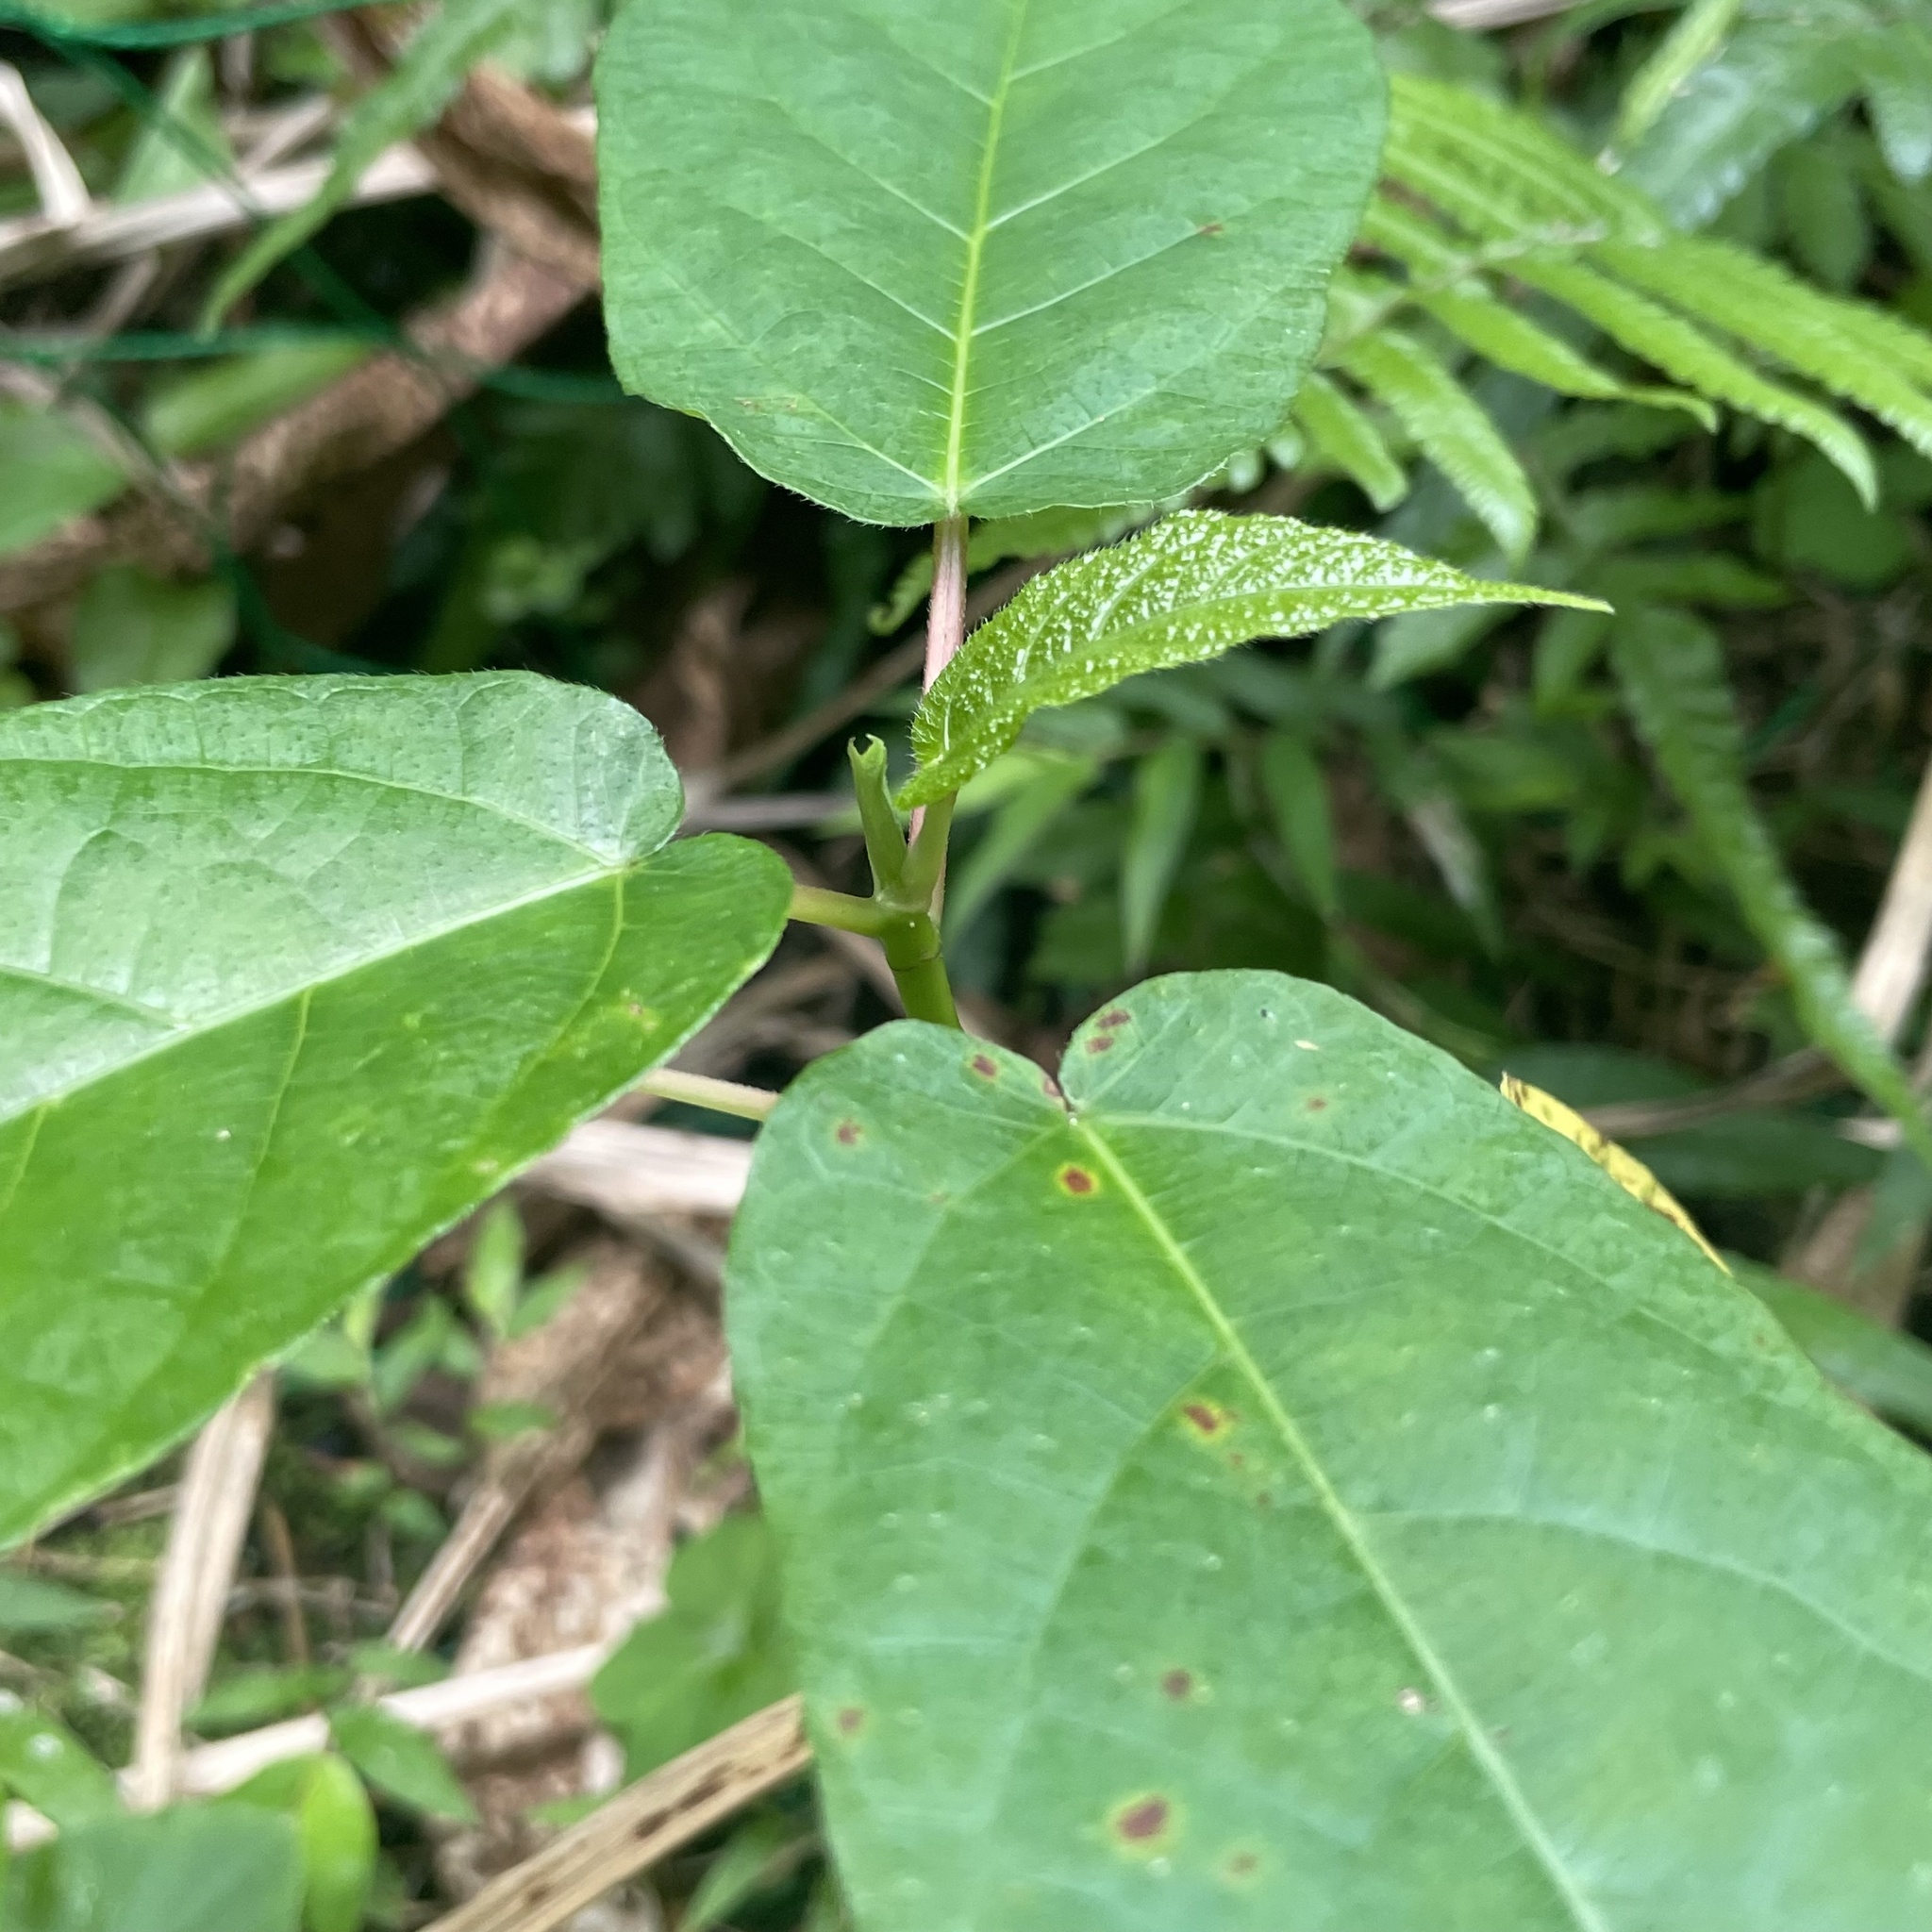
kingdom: Plantae
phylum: Tracheophyta
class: Magnoliopsida
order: Rosales
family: Moraceae
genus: Ficus
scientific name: Ficus erecta
